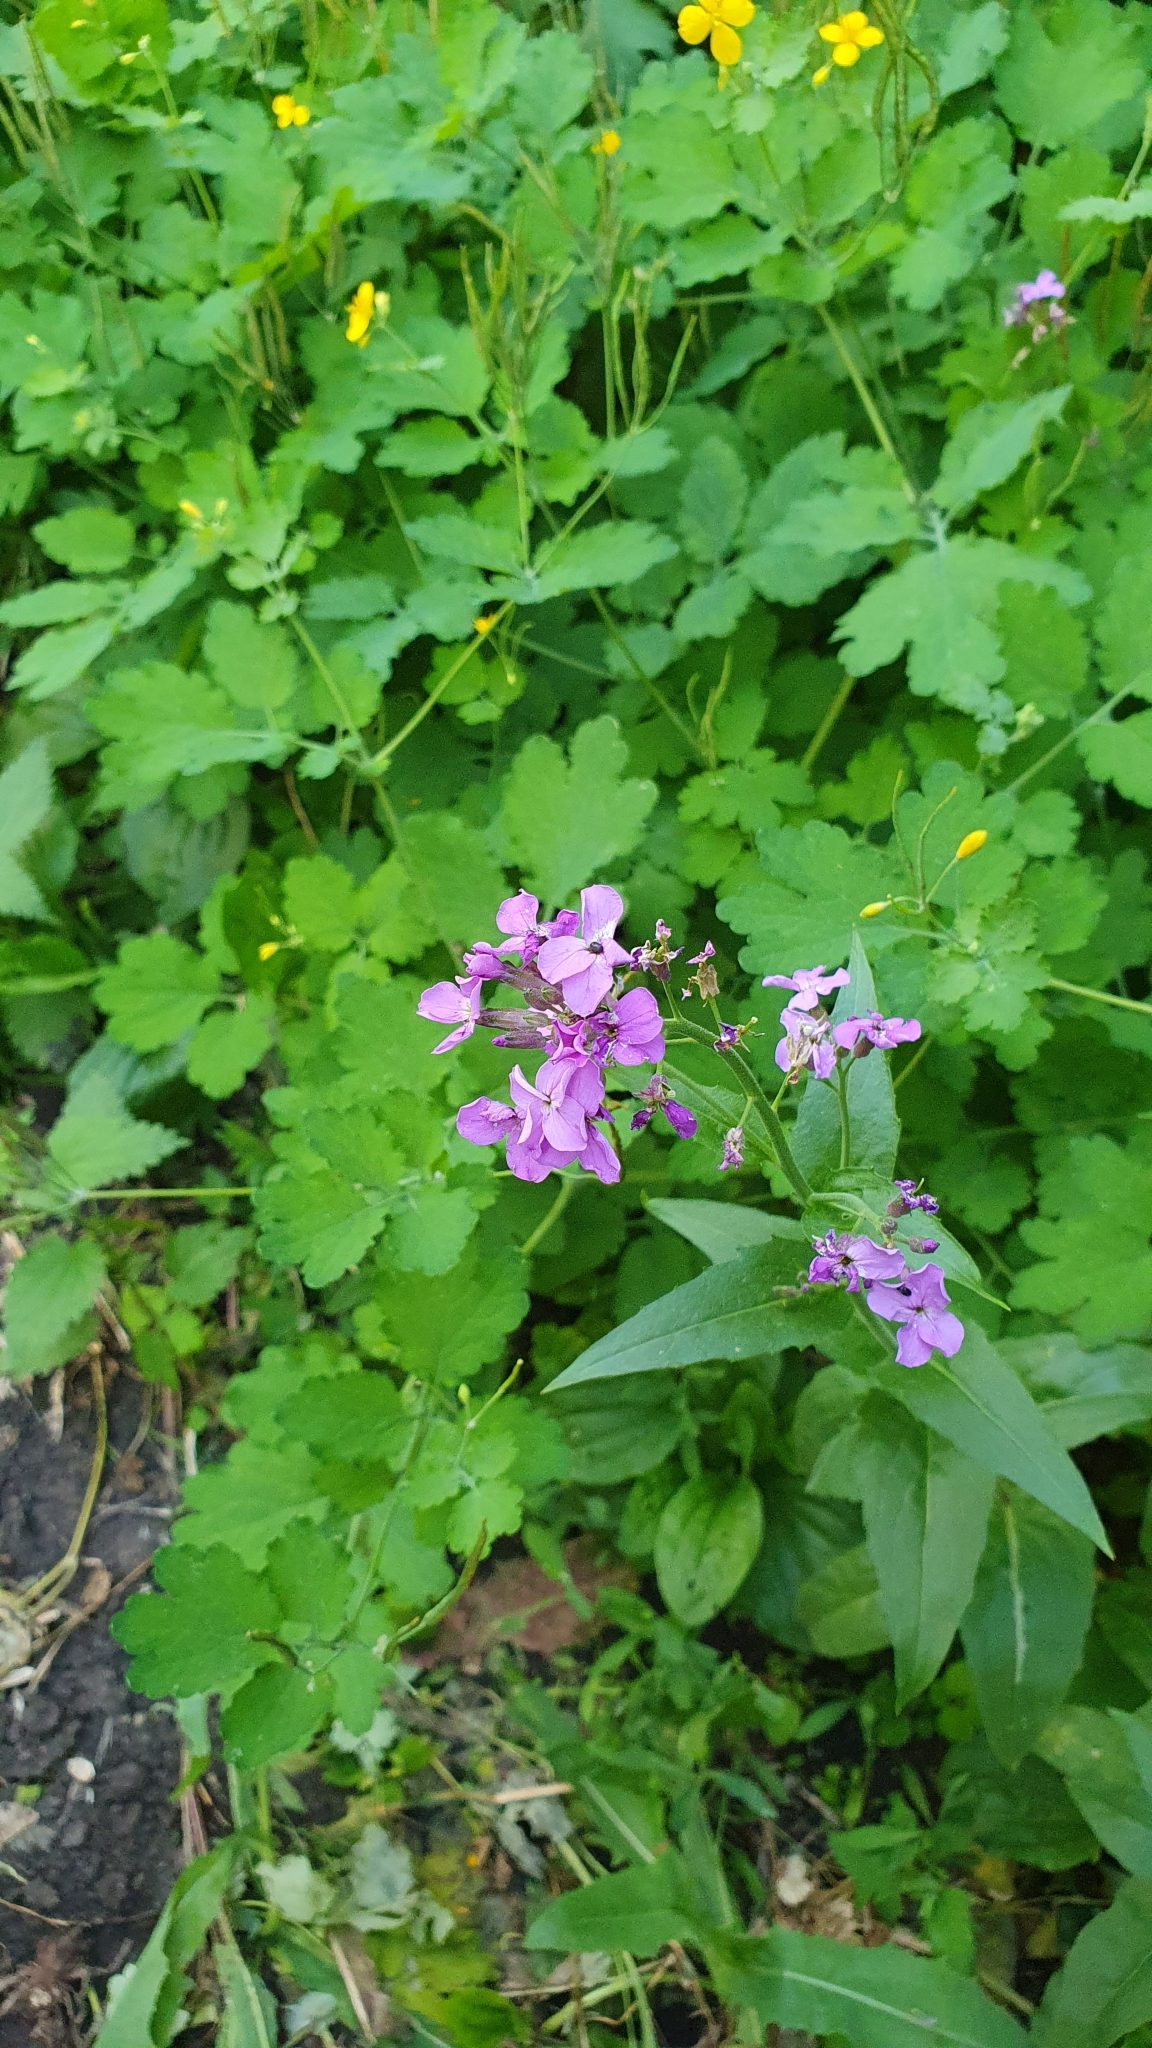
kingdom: Plantae
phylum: Tracheophyta
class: Magnoliopsida
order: Brassicales
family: Brassicaceae
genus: Hesperis
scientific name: Hesperis matronalis
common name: Dame's-violet
